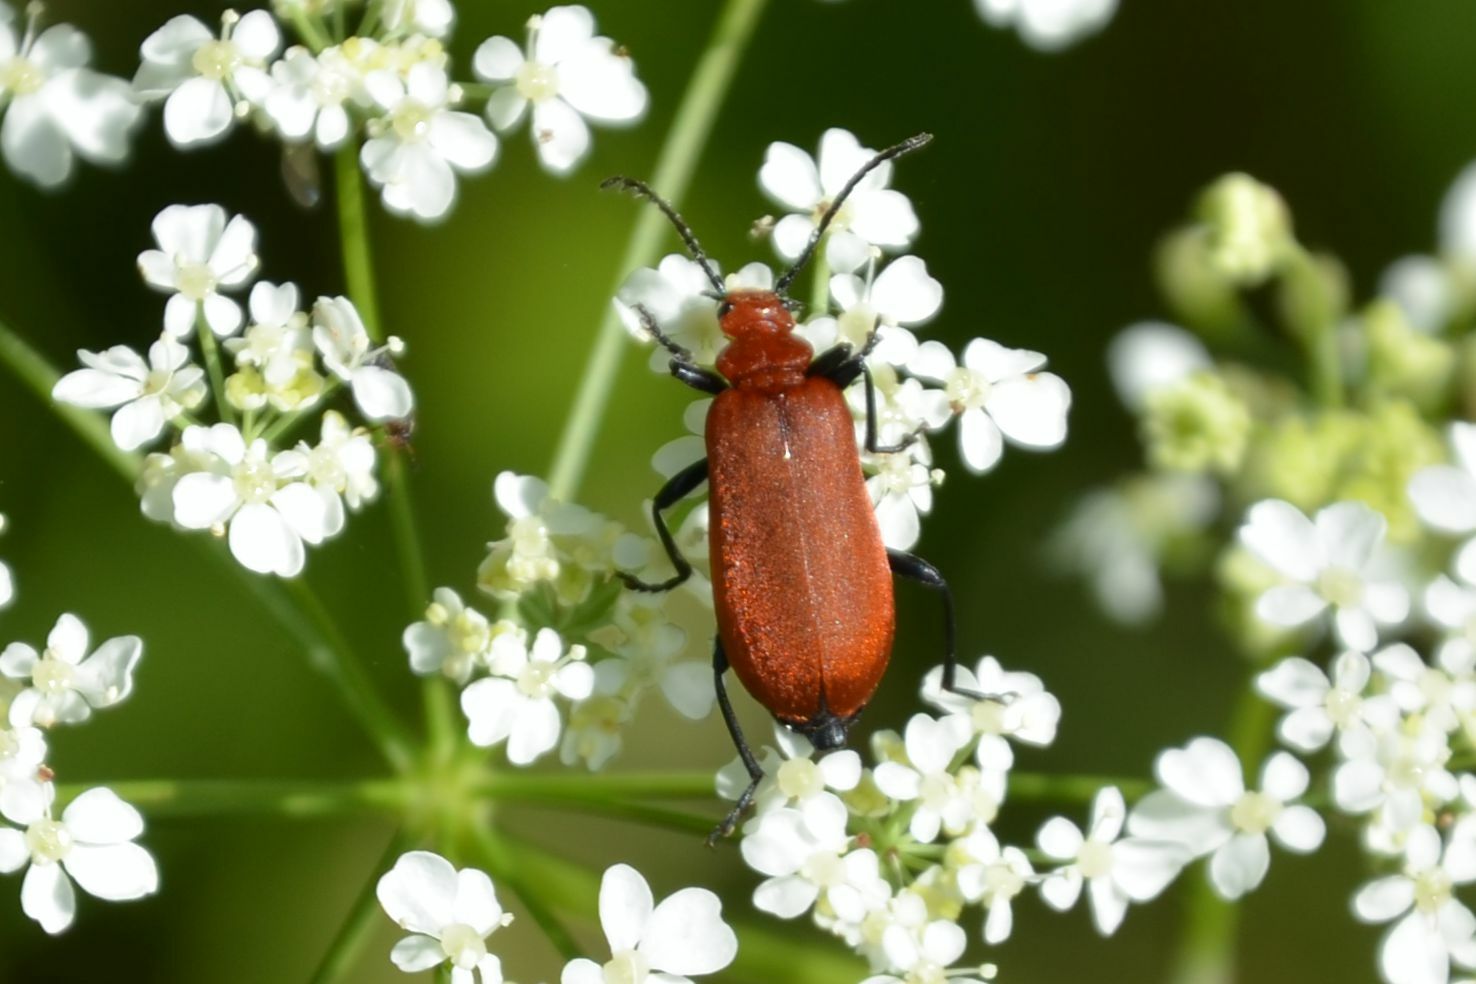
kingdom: Animalia
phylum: Arthropoda
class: Insecta
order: Coleoptera
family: Pyrochroidae
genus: Pyrochroa
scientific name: Pyrochroa serraticornis
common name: Red-headed cardinal beetle
